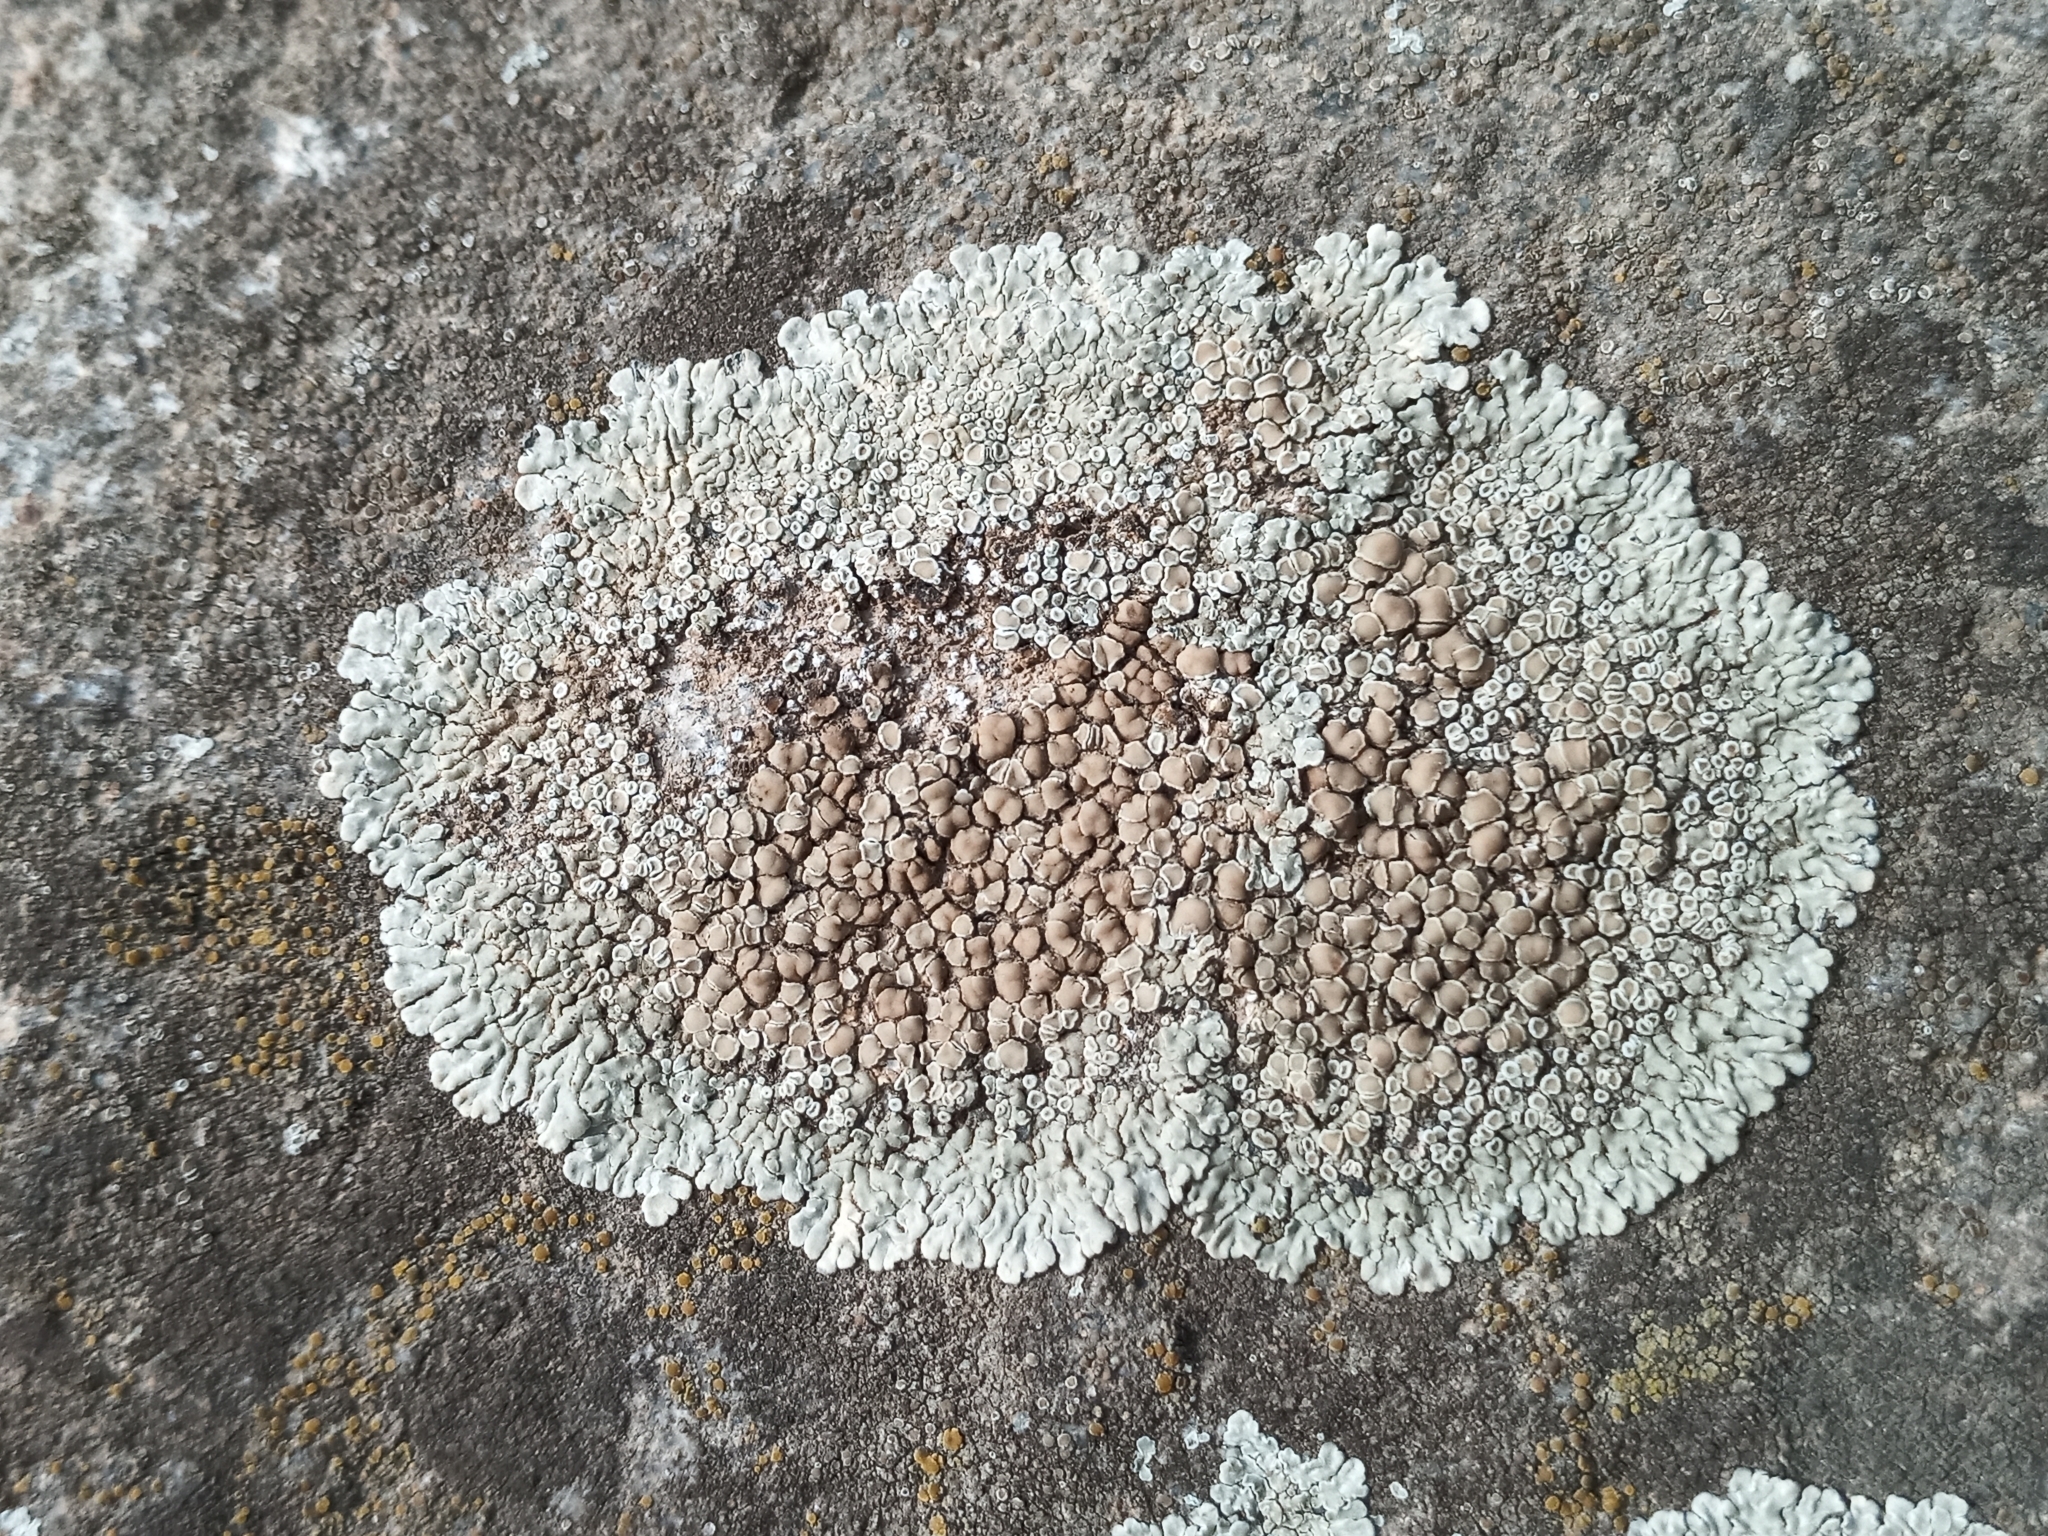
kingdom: Fungi
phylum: Ascomycota
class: Lecanoromycetes
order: Lecanorales
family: Lecanoraceae
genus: Protoparmeliopsis
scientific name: Protoparmeliopsis muralis
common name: Stonewall rim lichen
